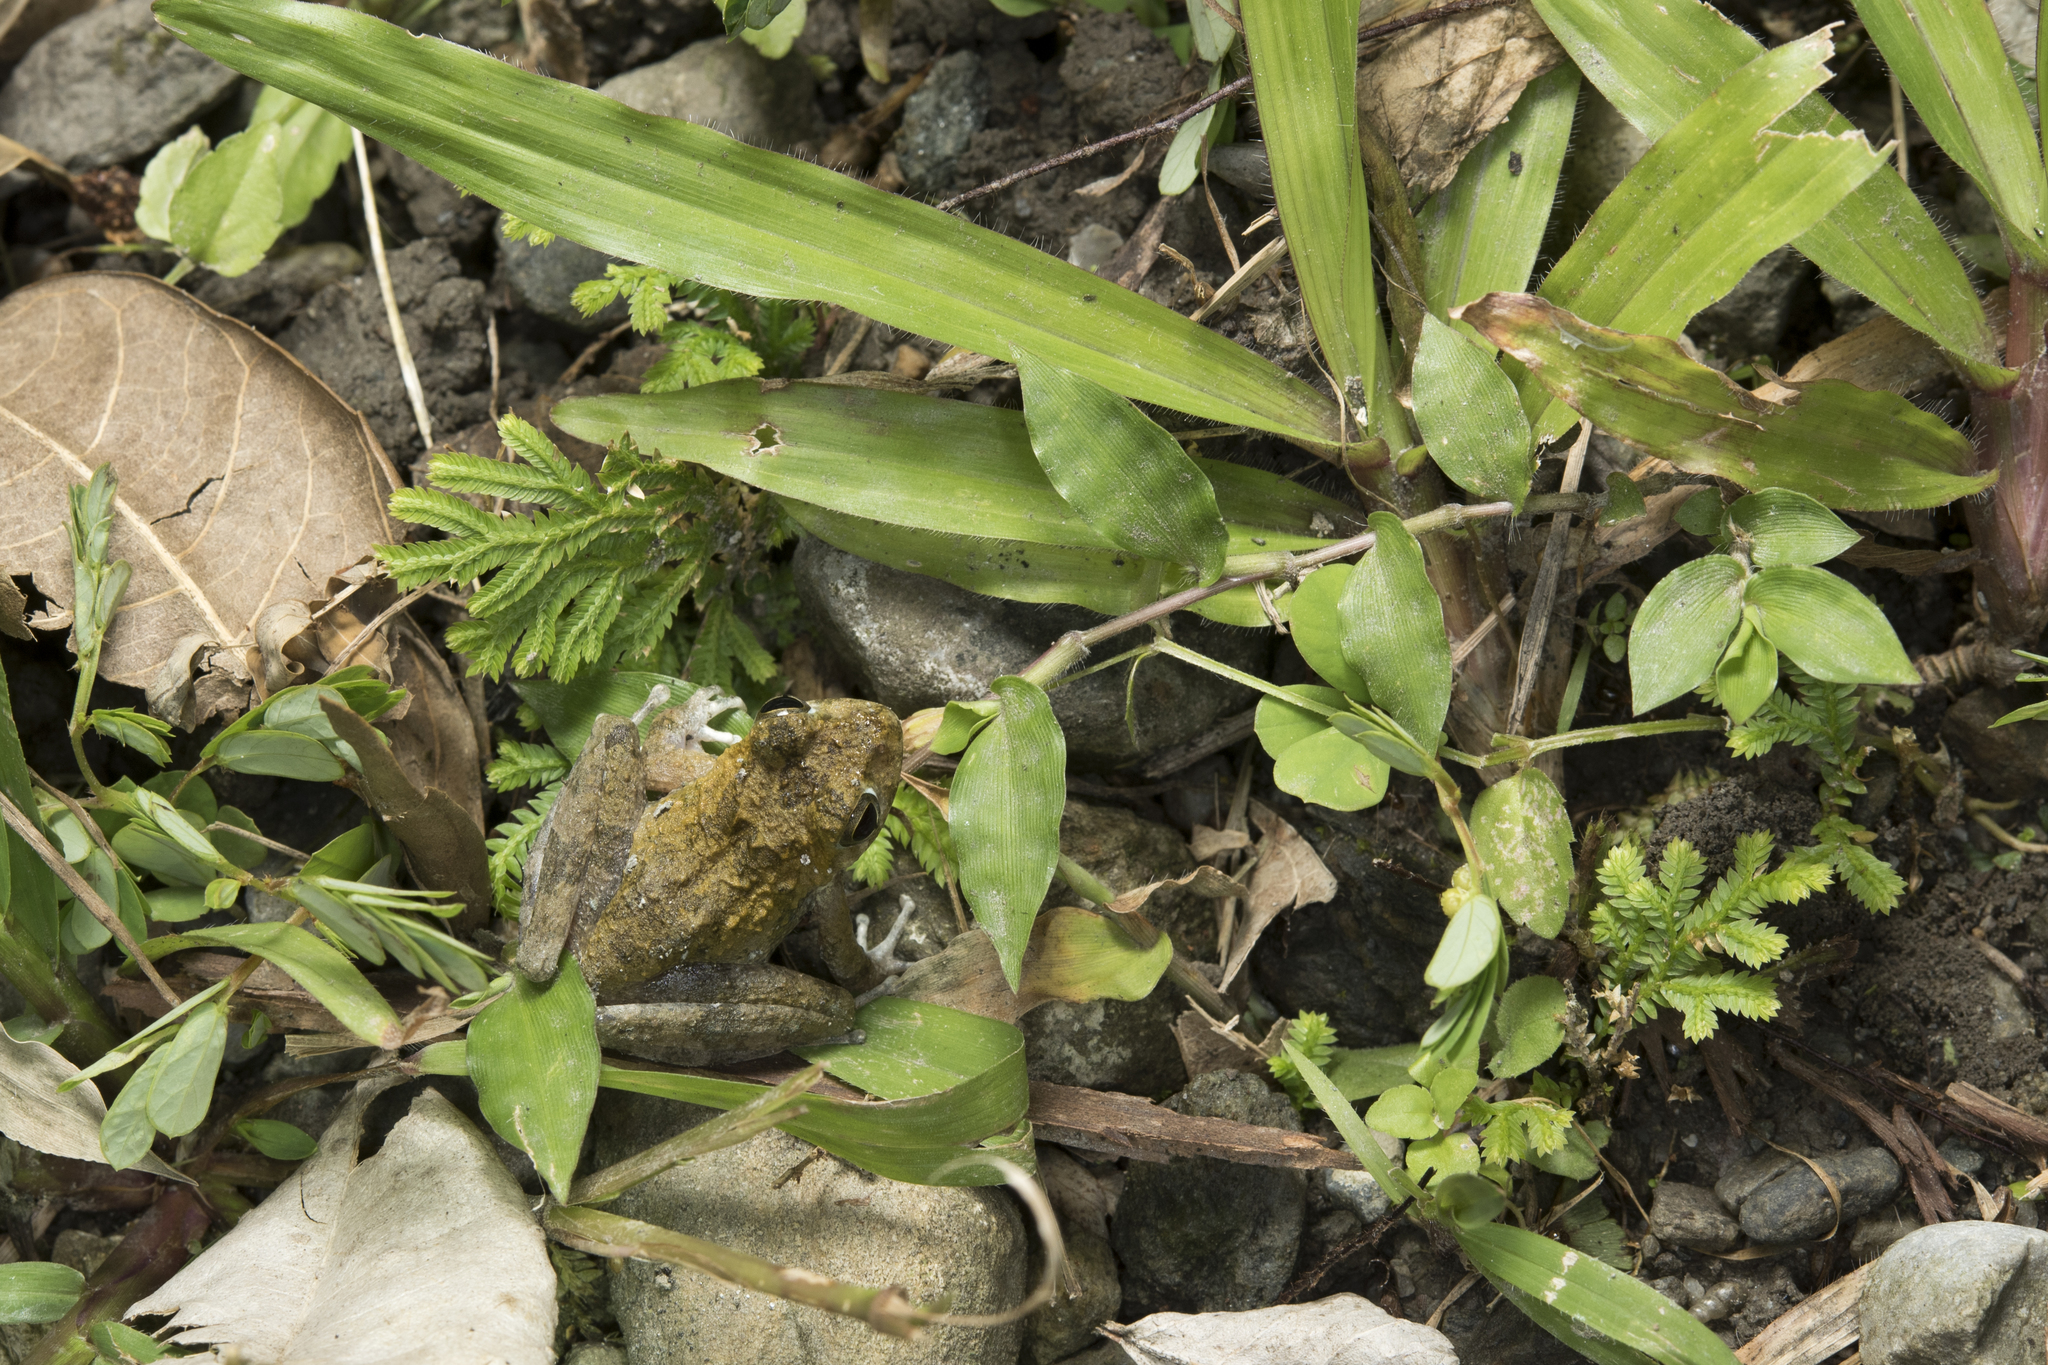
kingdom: Animalia
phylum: Chordata
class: Amphibia
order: Anura
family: Rhacophoridae
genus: Buergeria
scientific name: Buergeria otai
